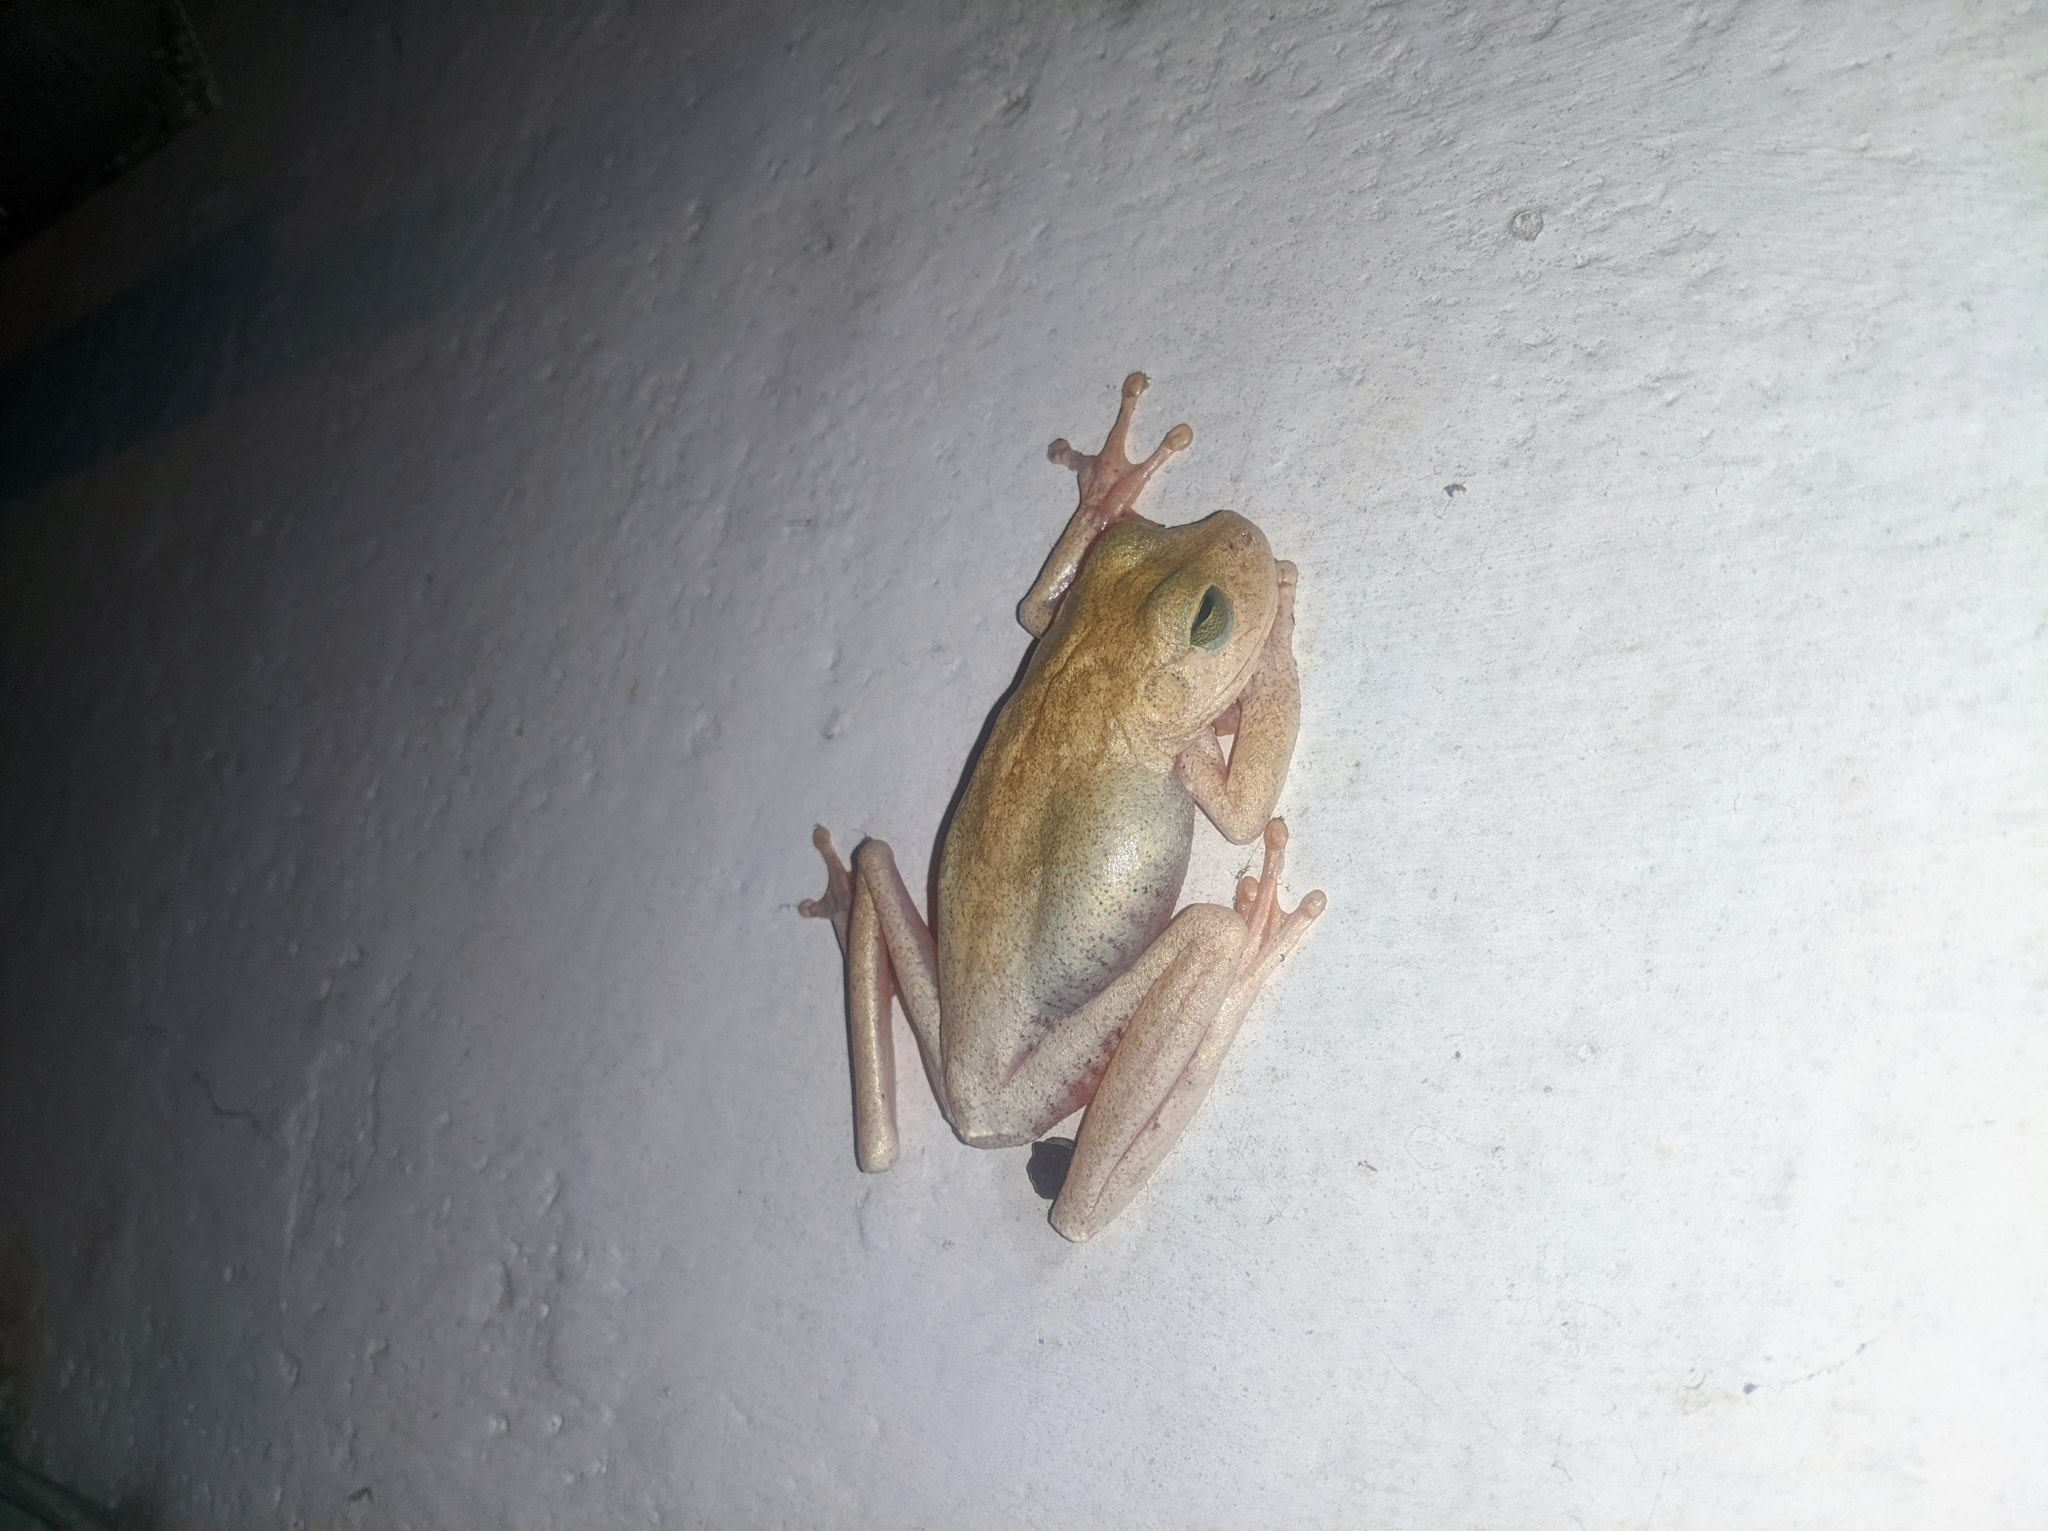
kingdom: Animalia
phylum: Chordata
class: Amphibia
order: Anura
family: Hylidae
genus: Boana
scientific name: Boana platanera
